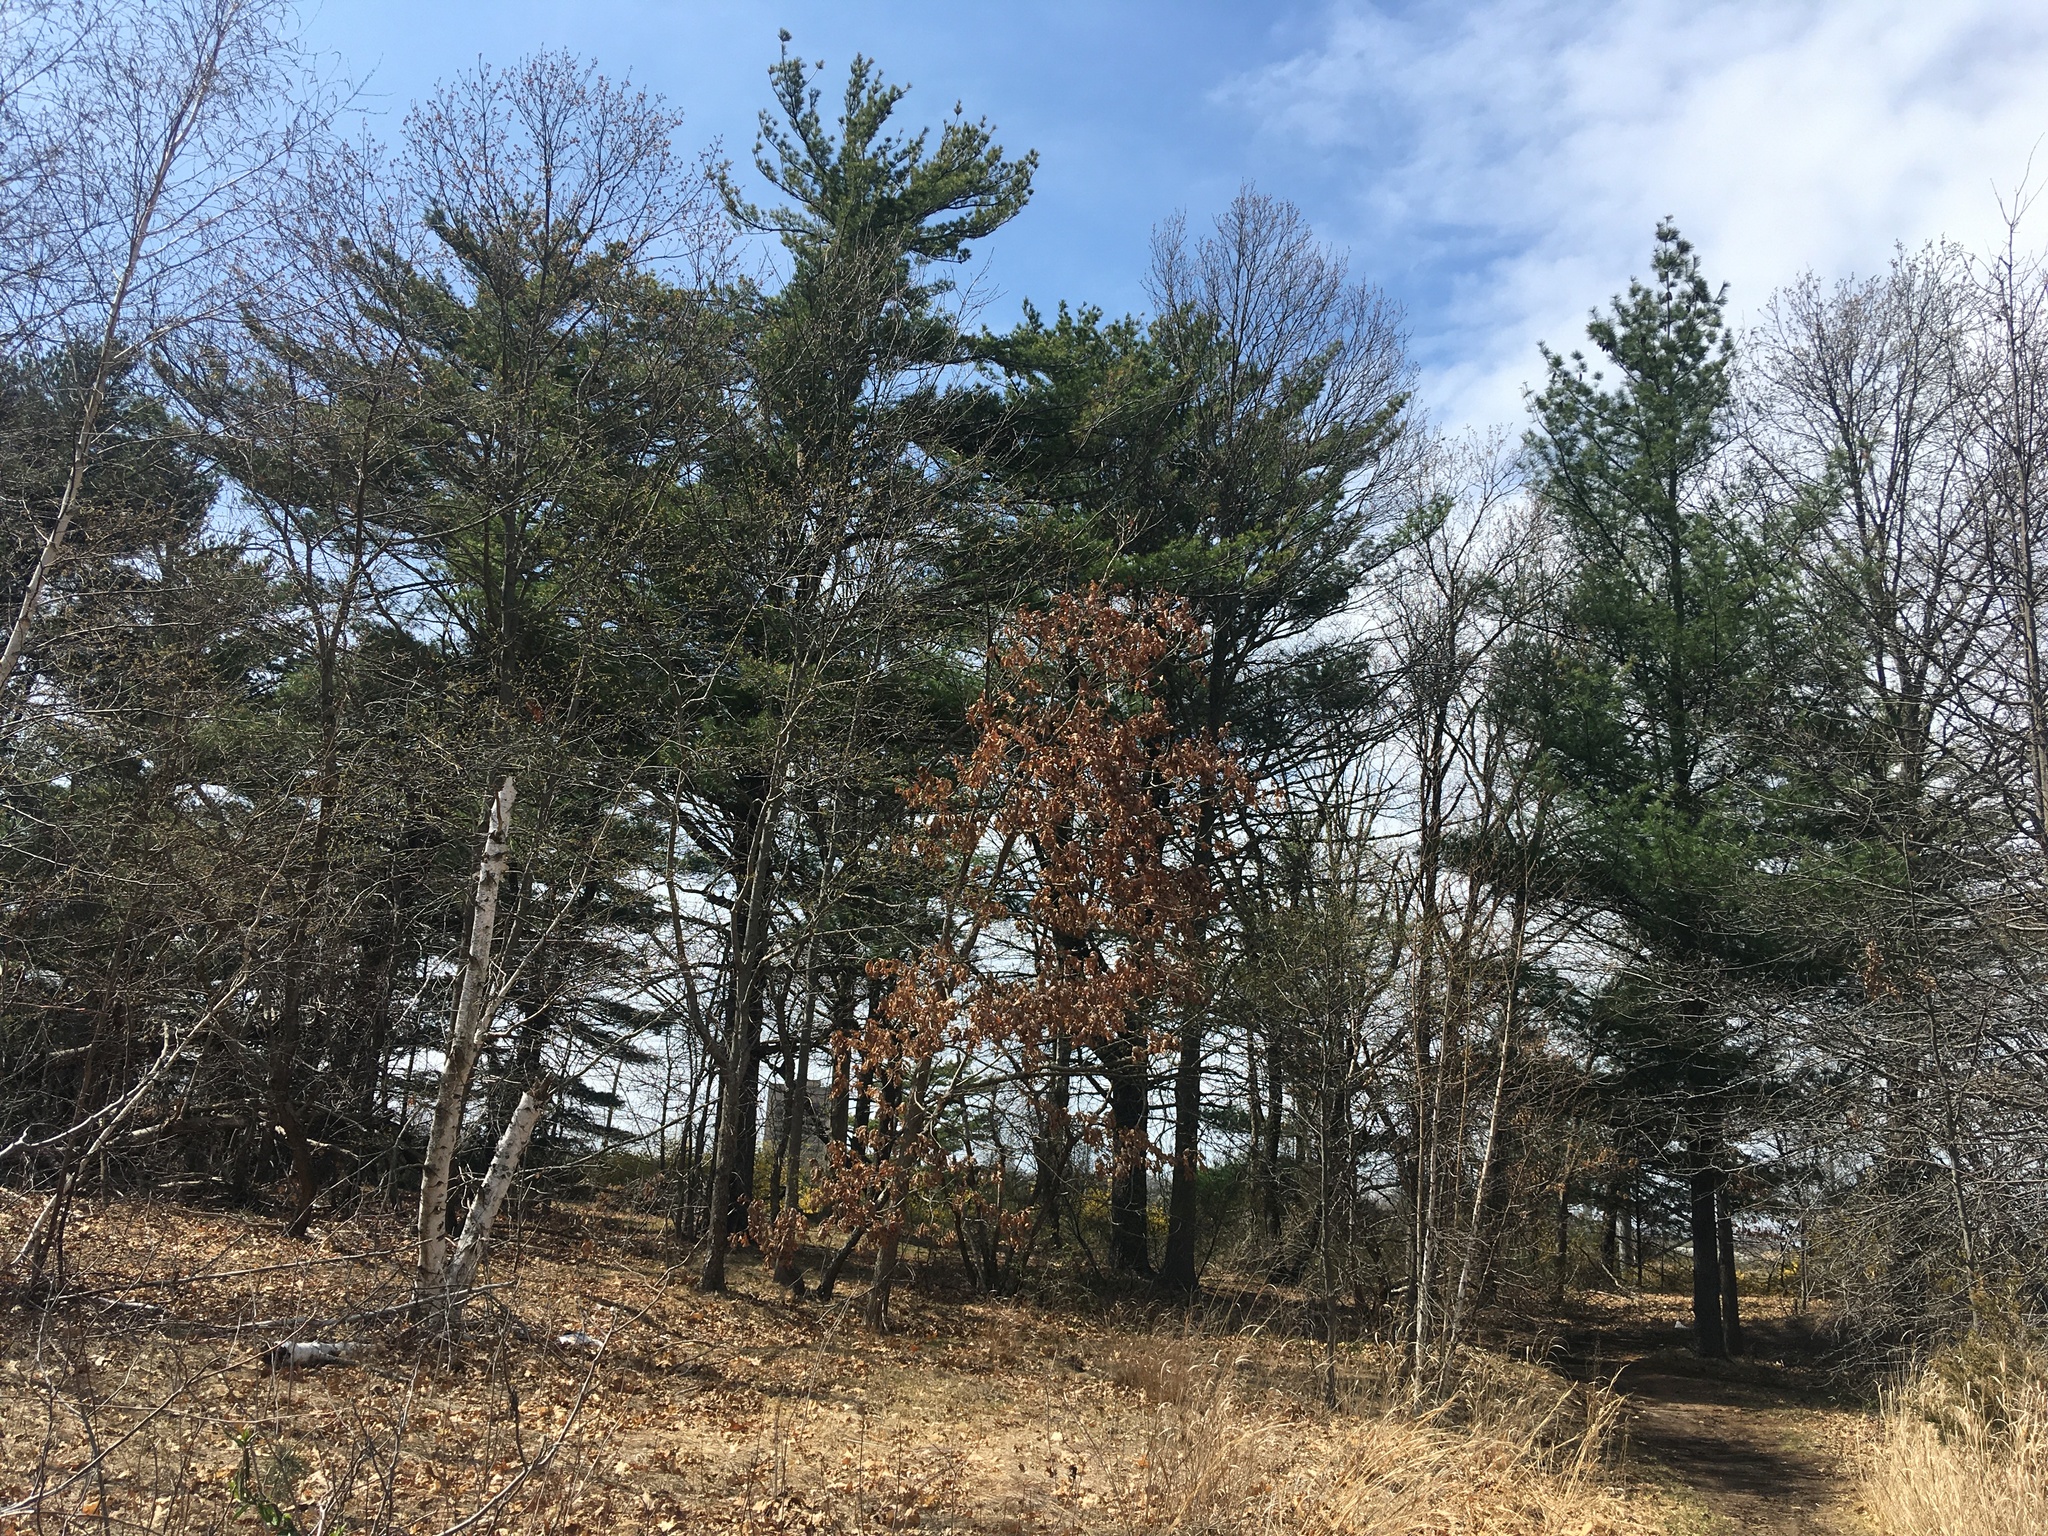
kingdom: Plantae
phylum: Tracheophyta
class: Pinopsida
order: Pinales
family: Pinaceae
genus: Pinus
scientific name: Pinus strobus
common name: Weymouth pine
